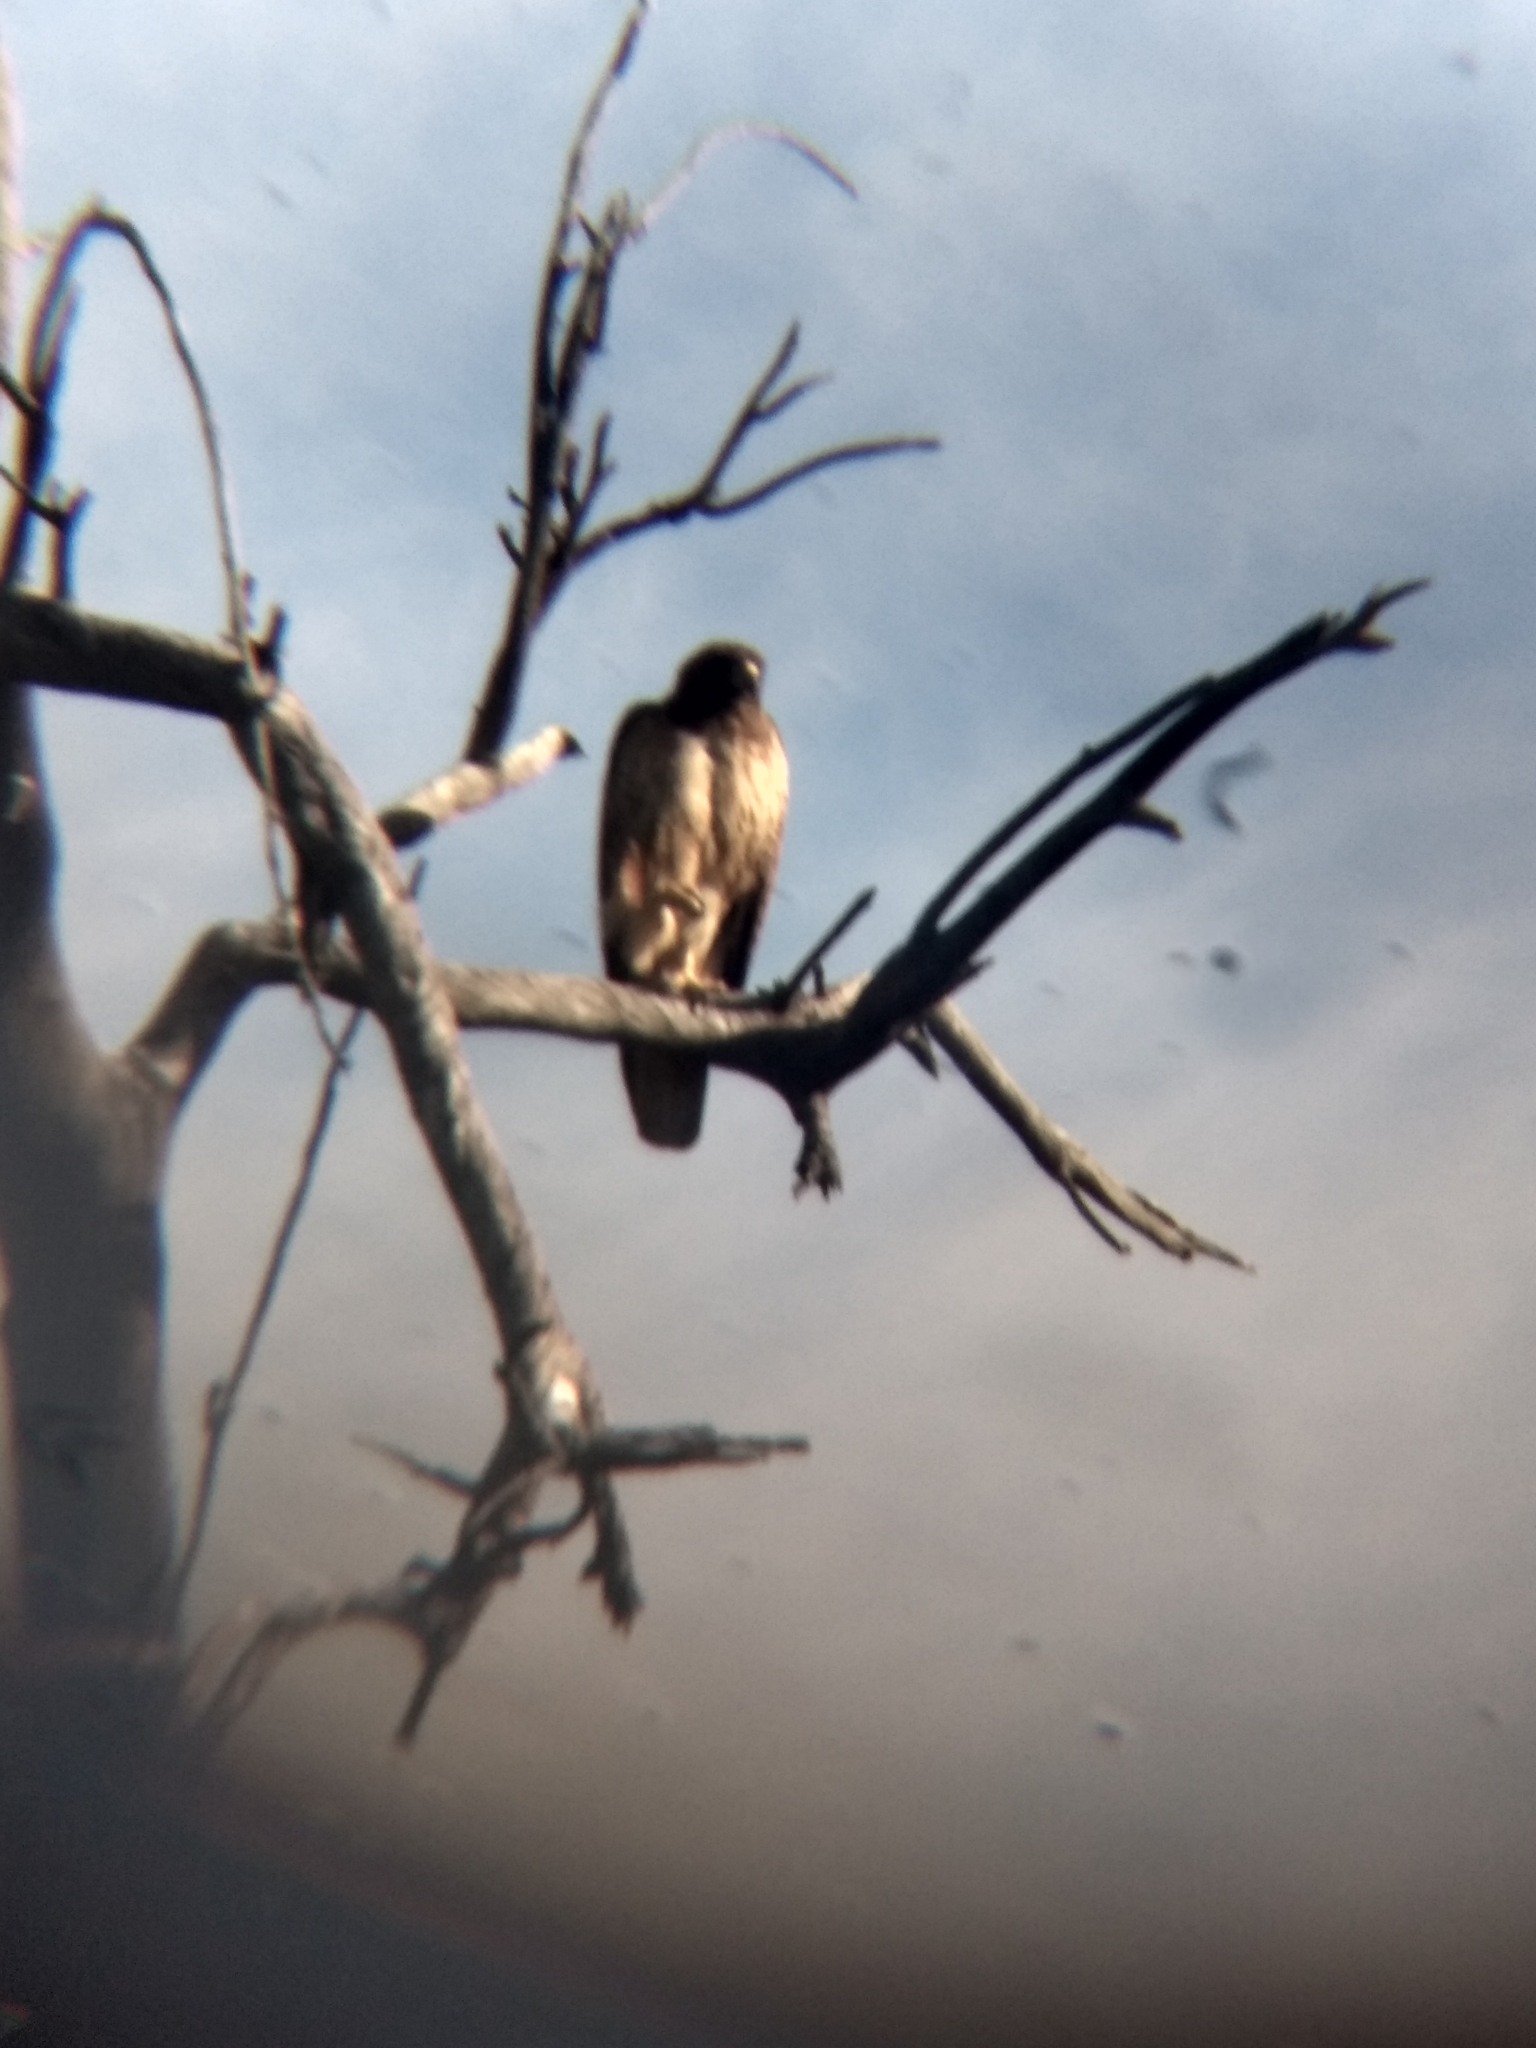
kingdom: Animalia
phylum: Chordata
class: Aves
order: Accipitriformes
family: Accipitridae
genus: Buteo
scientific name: Buteo jamaicensis
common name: Red-tailed hawk
